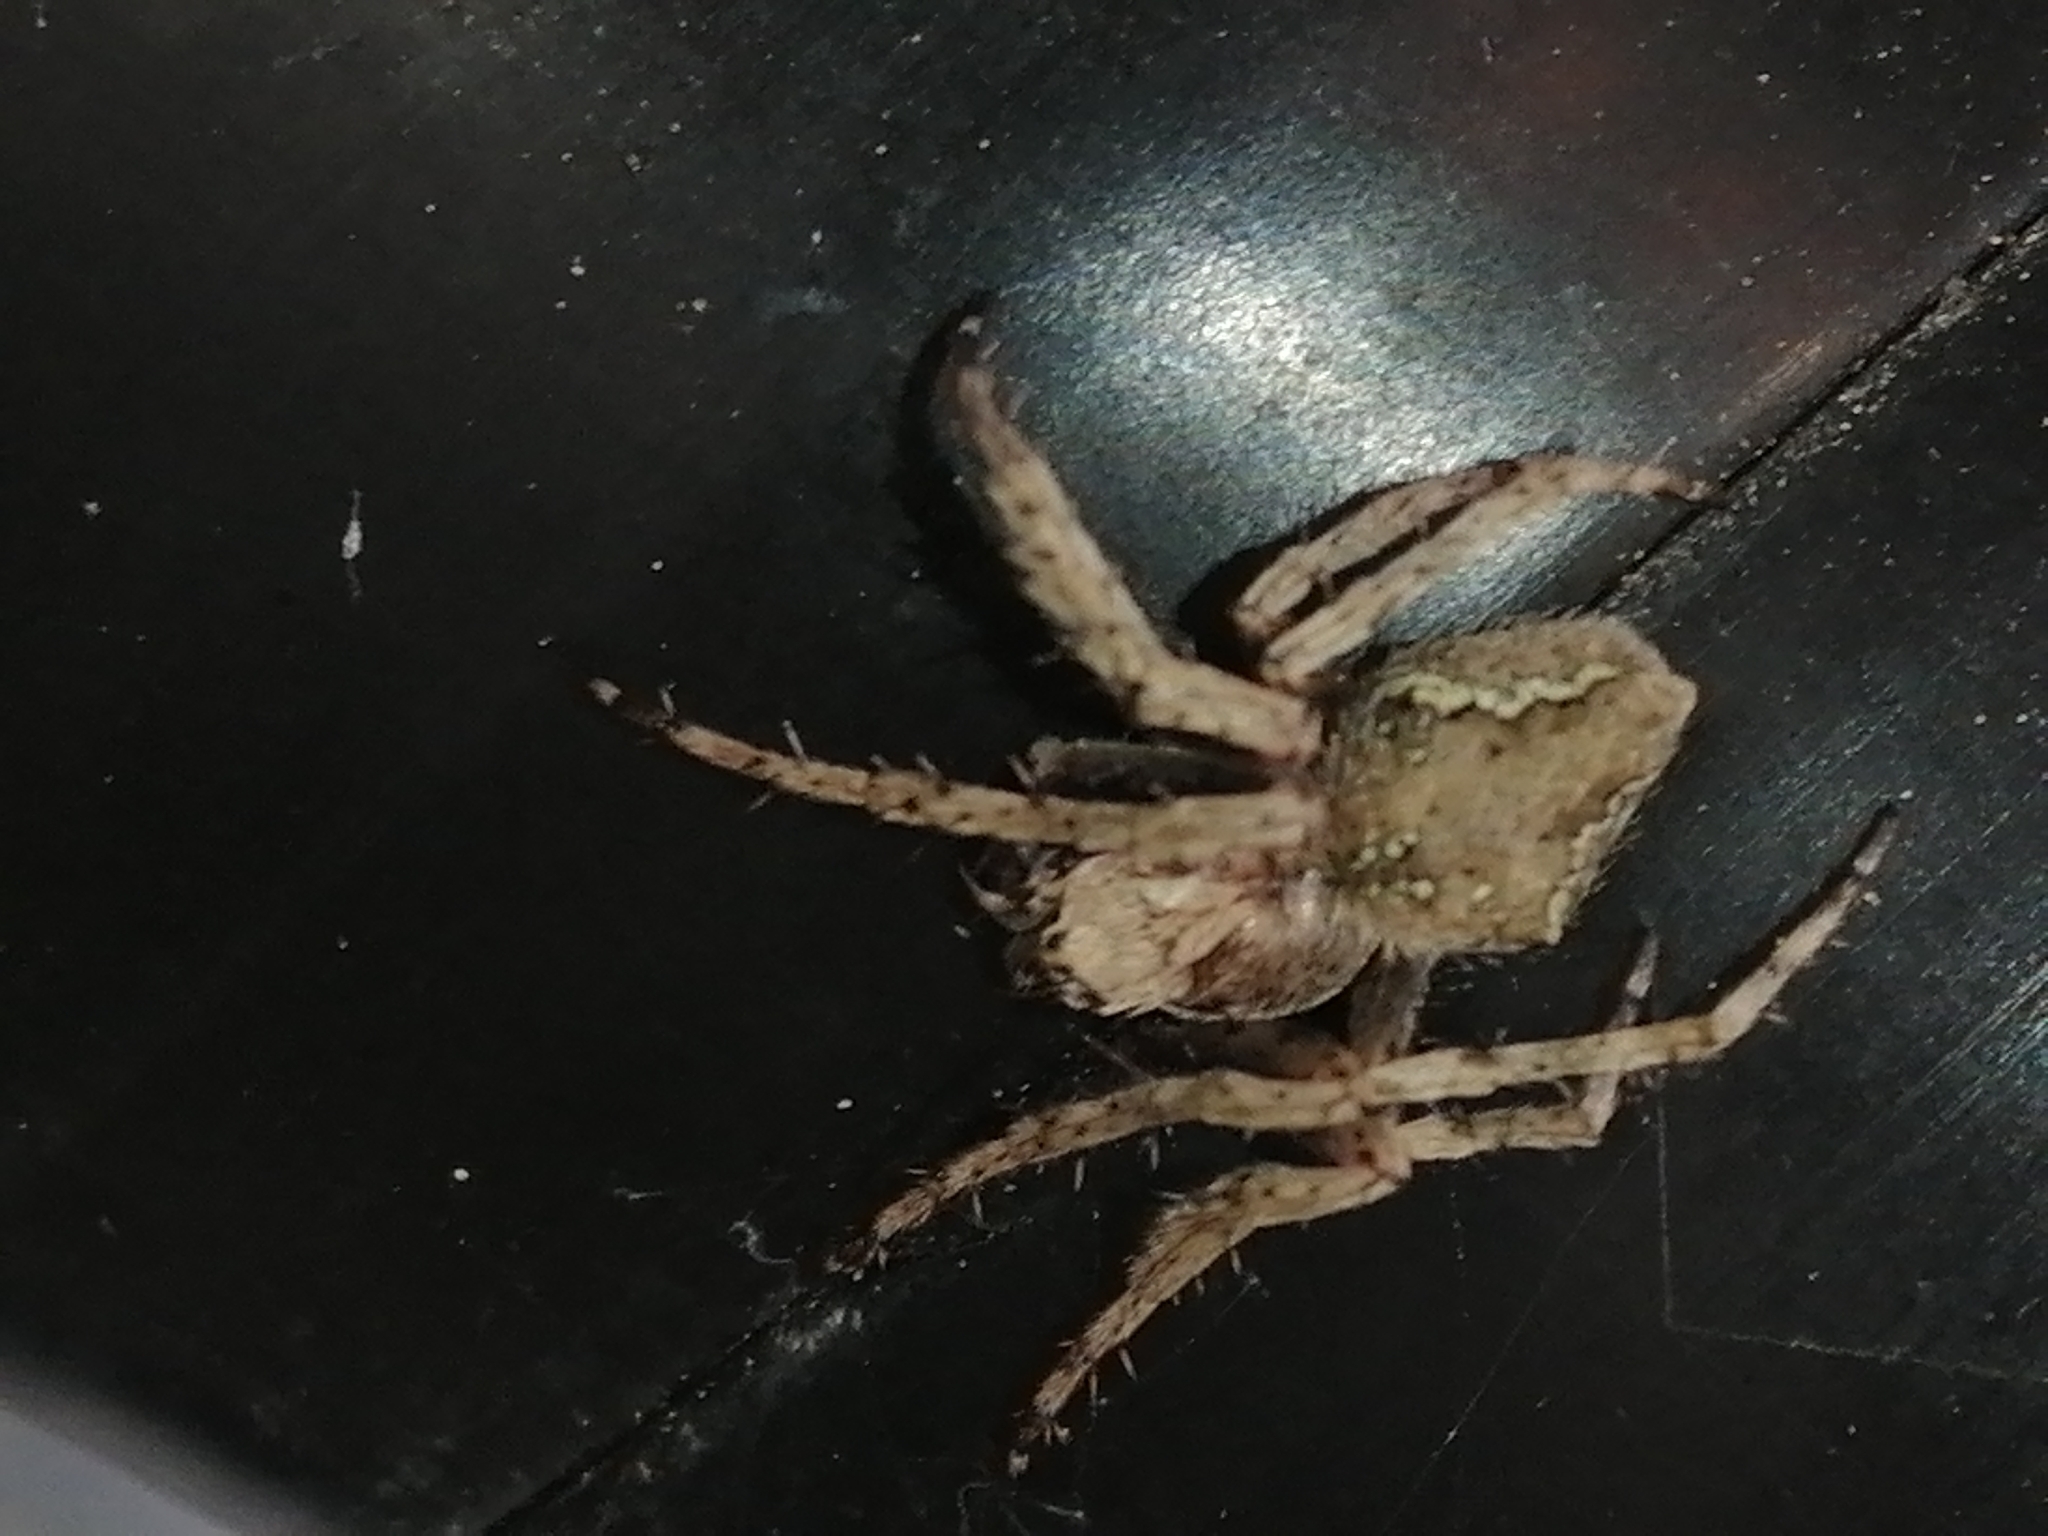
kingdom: Animalia
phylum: Arthropoda
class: Arachnida
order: Araneae
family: Araneidae
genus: Eriophora
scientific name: Eriophora pustulosa
